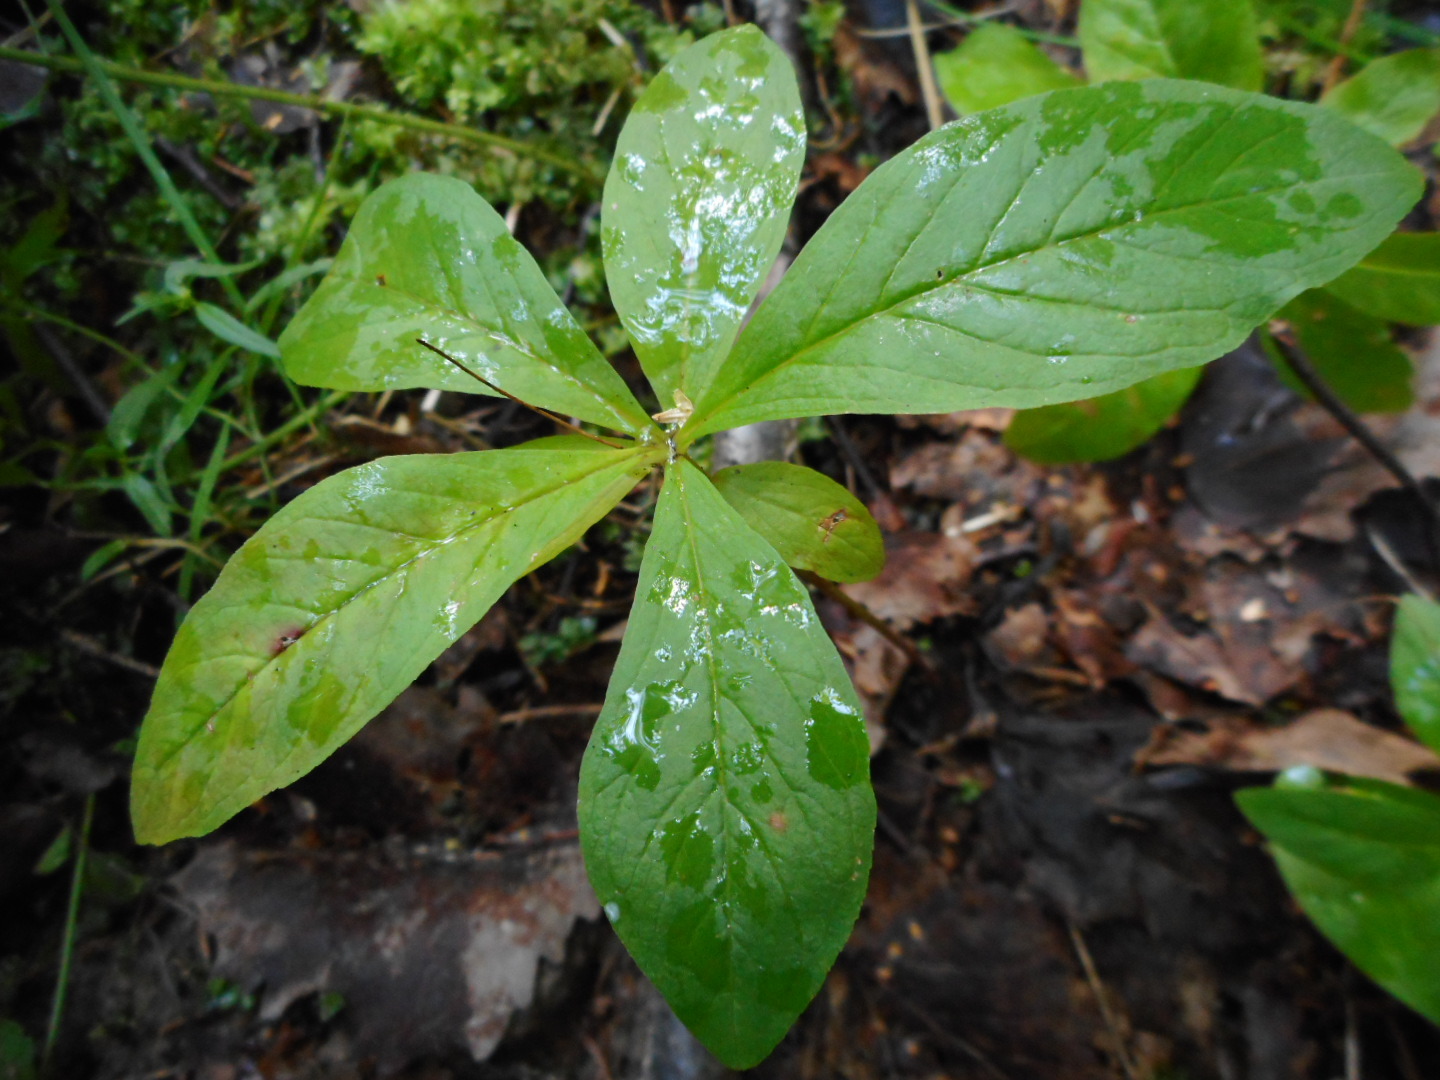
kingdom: Plantae
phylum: Tracheophyta
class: Magnoliopsida
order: Ericales
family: Primulaceae
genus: Lysimachia
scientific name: Lysimachia europaea
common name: Arctic starflower
